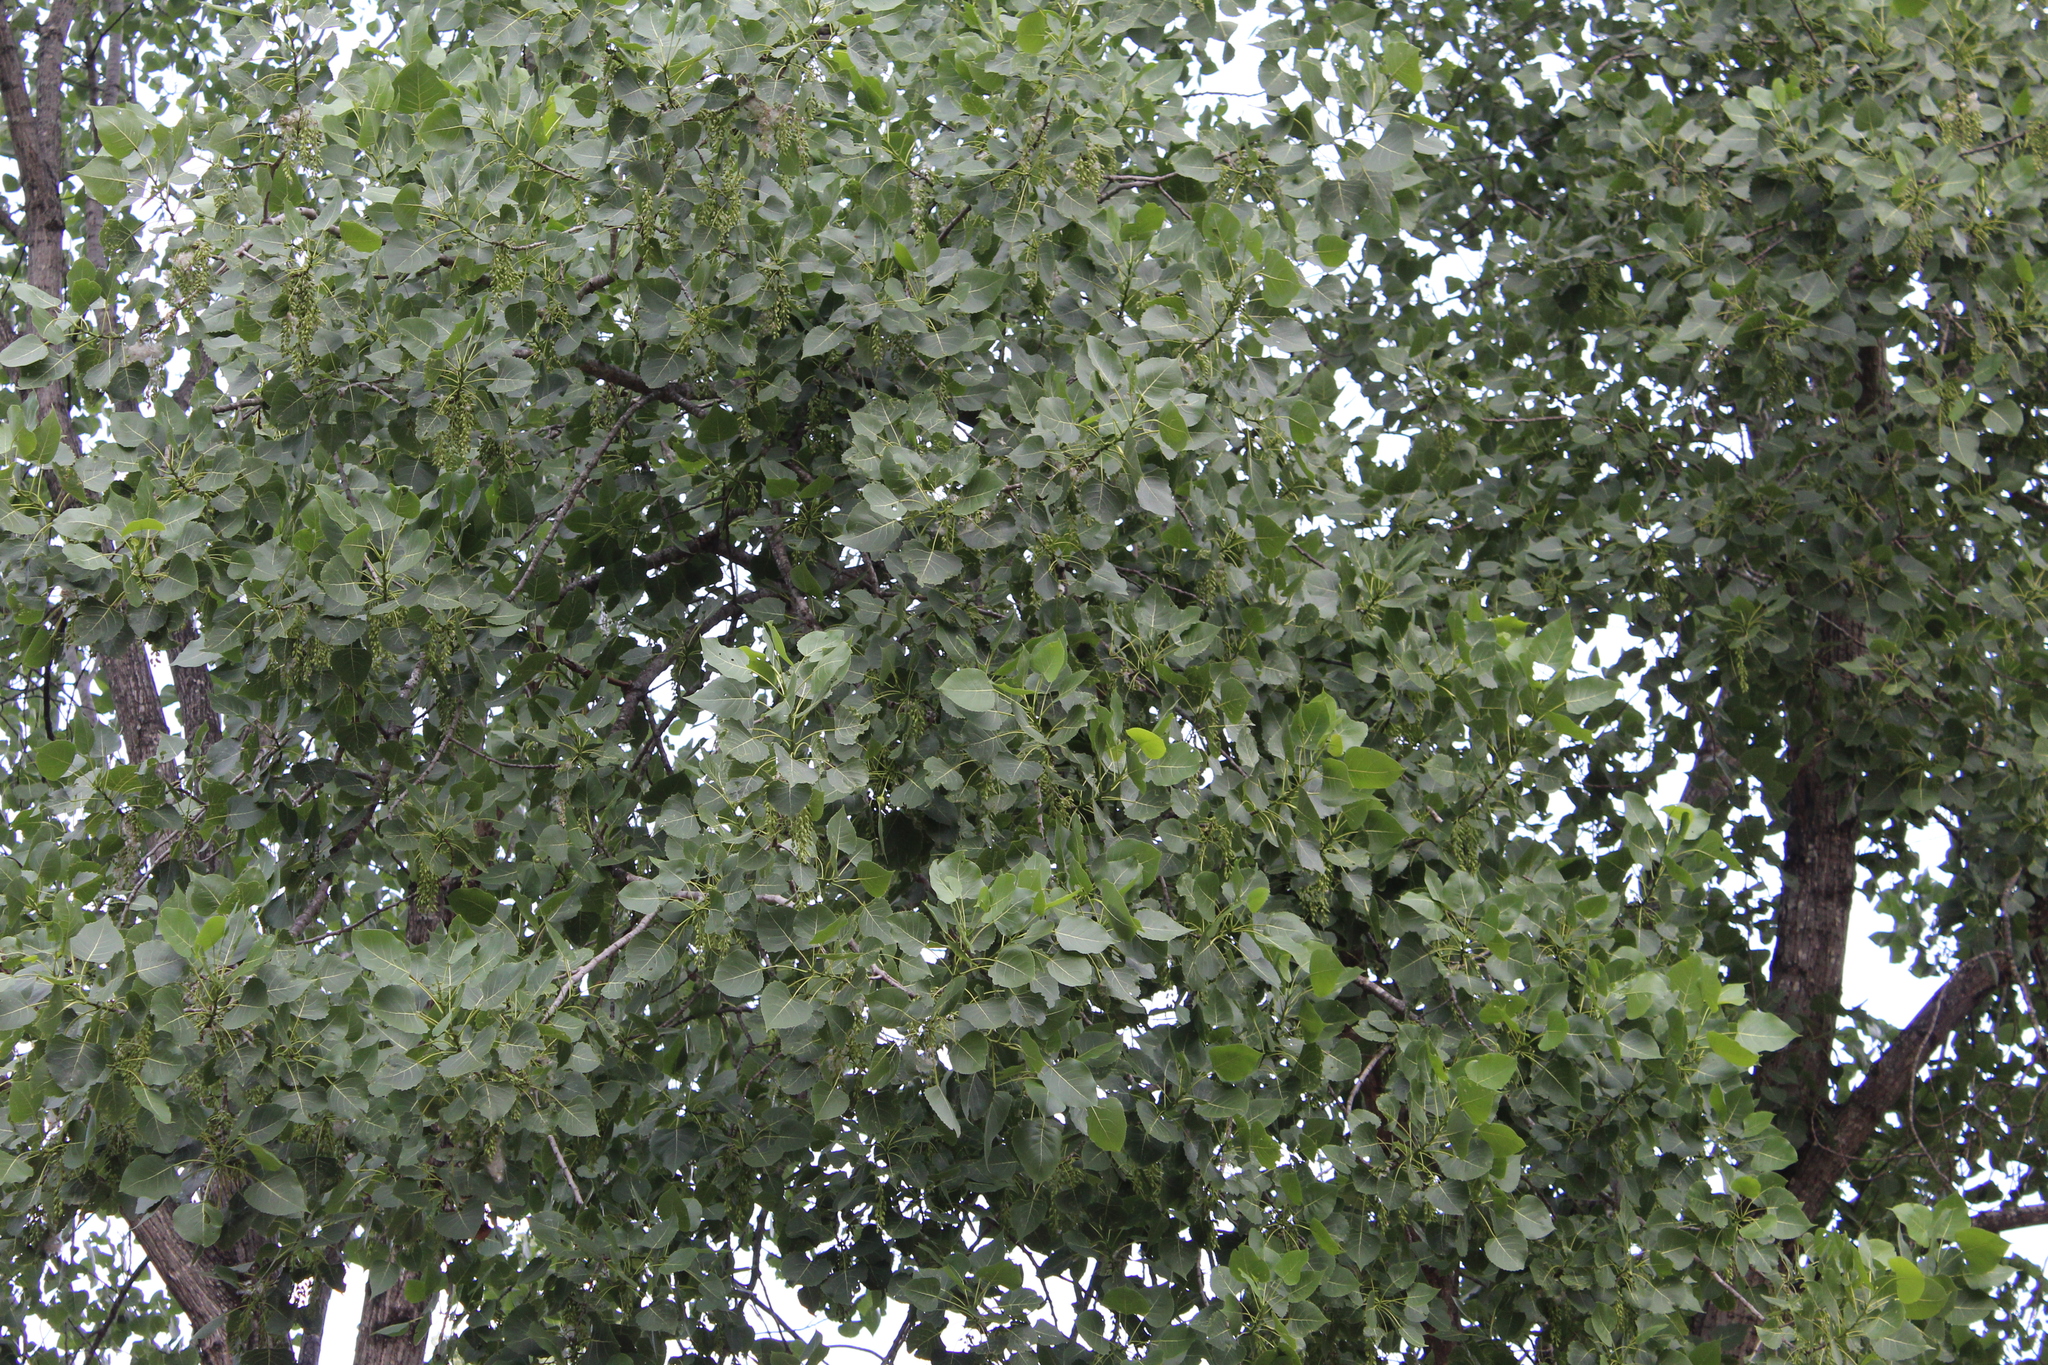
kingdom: Plantae
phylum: Tracheophyta
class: Magnoliopsida
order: Malpighiales
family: Salicaceae
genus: Populus
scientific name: Populus deltoides
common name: Eastern cottonwood
